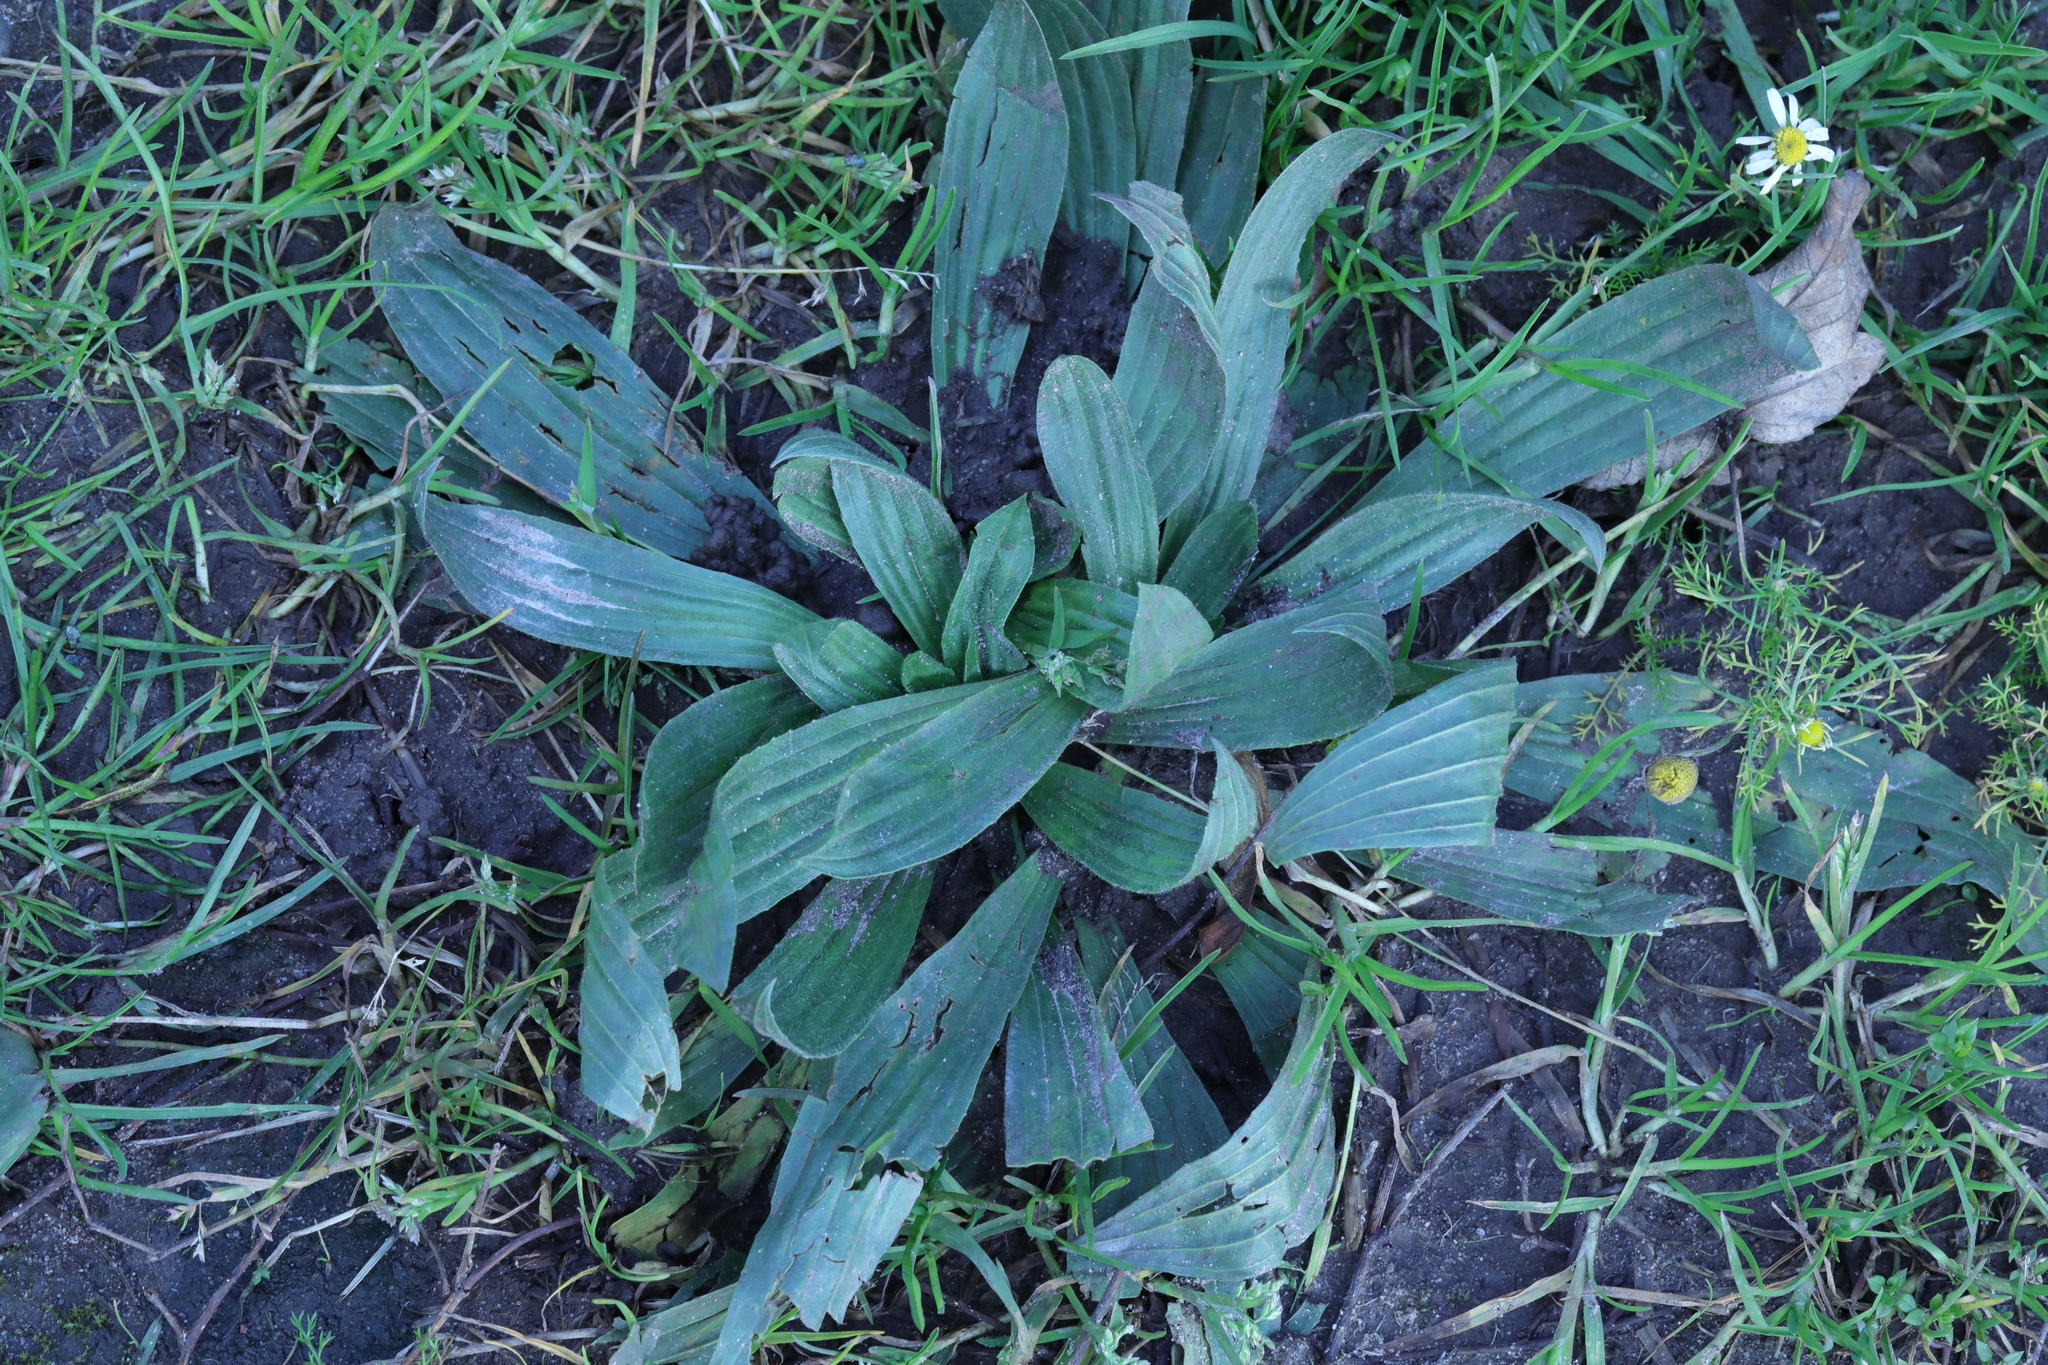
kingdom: Plantae
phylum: Tracheophyta
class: Magnoliopsida
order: Lamiales
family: Plantaginaceae
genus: Plantago
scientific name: Plantago lanceolata
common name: Ribwort plantain
